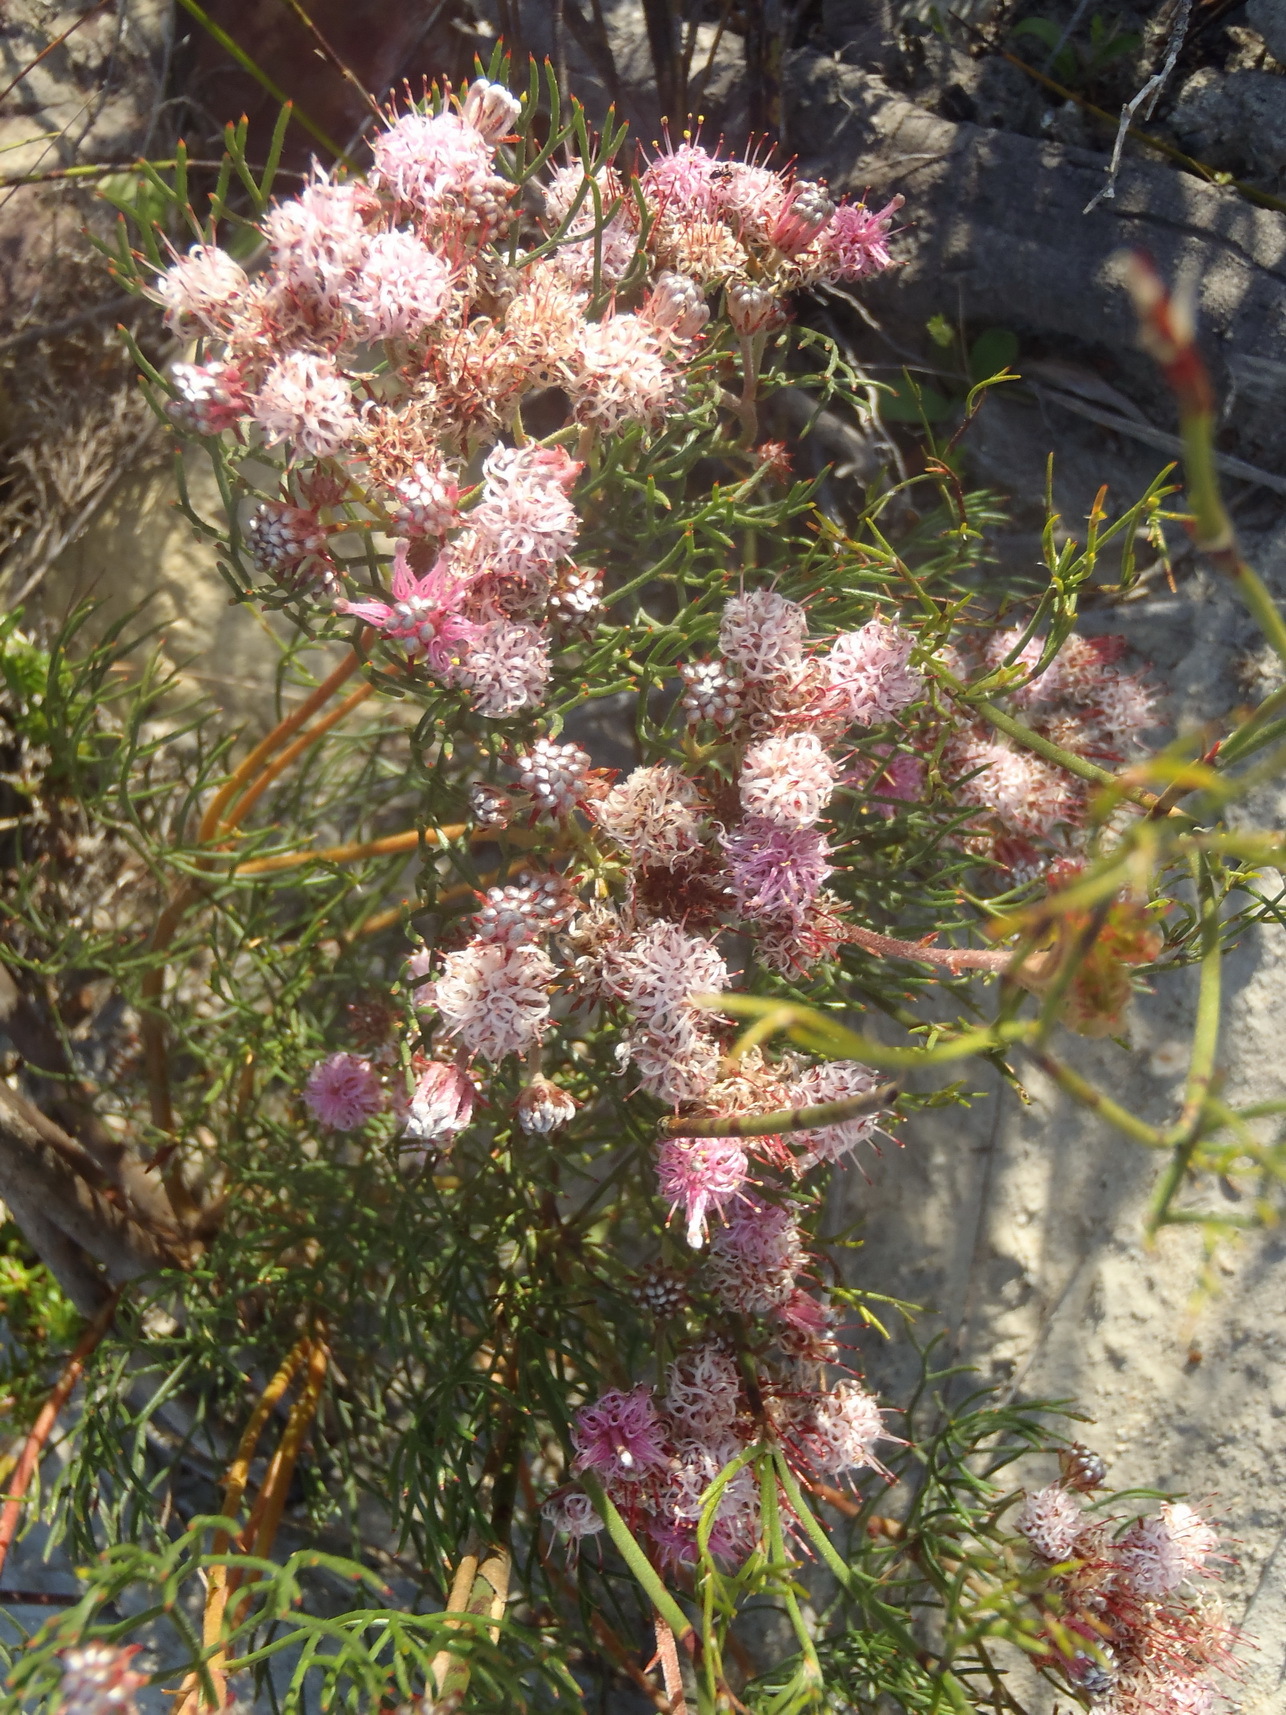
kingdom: Plantae
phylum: Tracheophyta
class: Magnoliopsida
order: Proteales
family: Proteaceae
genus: Serruria
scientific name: Serruria fasciflora
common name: Common pin spiderhead
